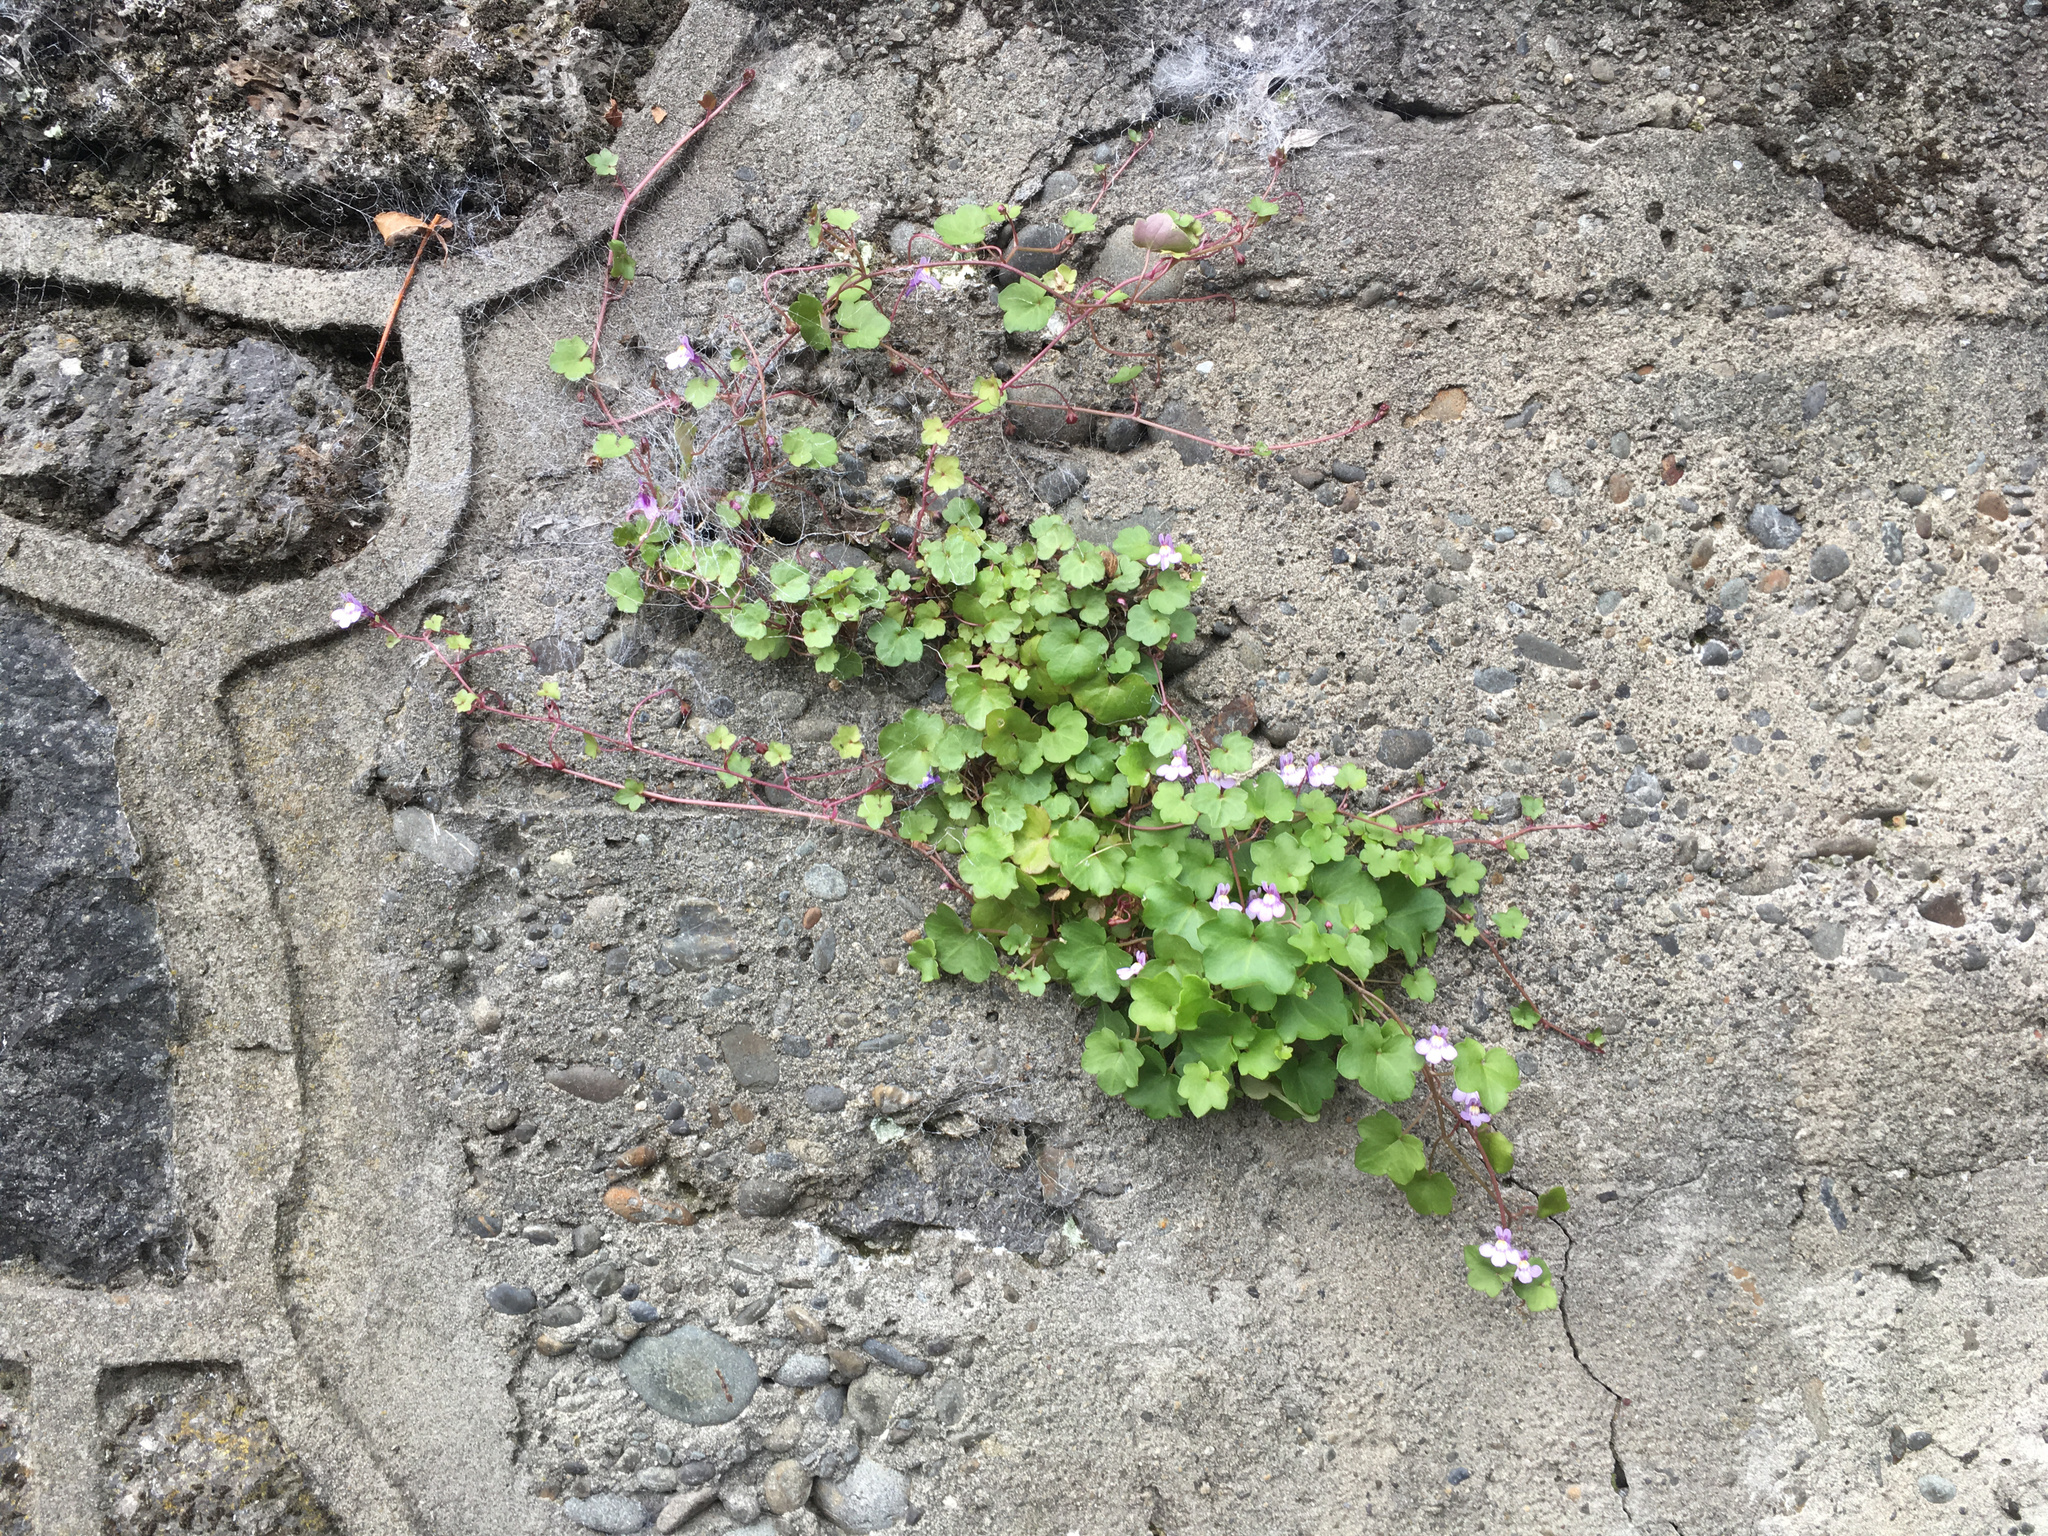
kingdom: Plantae
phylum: Tracheophyta
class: Magnoliopsida
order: Lamiales
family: Plantaginaceae
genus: Cymbalaria
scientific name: Cymbalaria muralis
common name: Ivy-leaved toadflax
